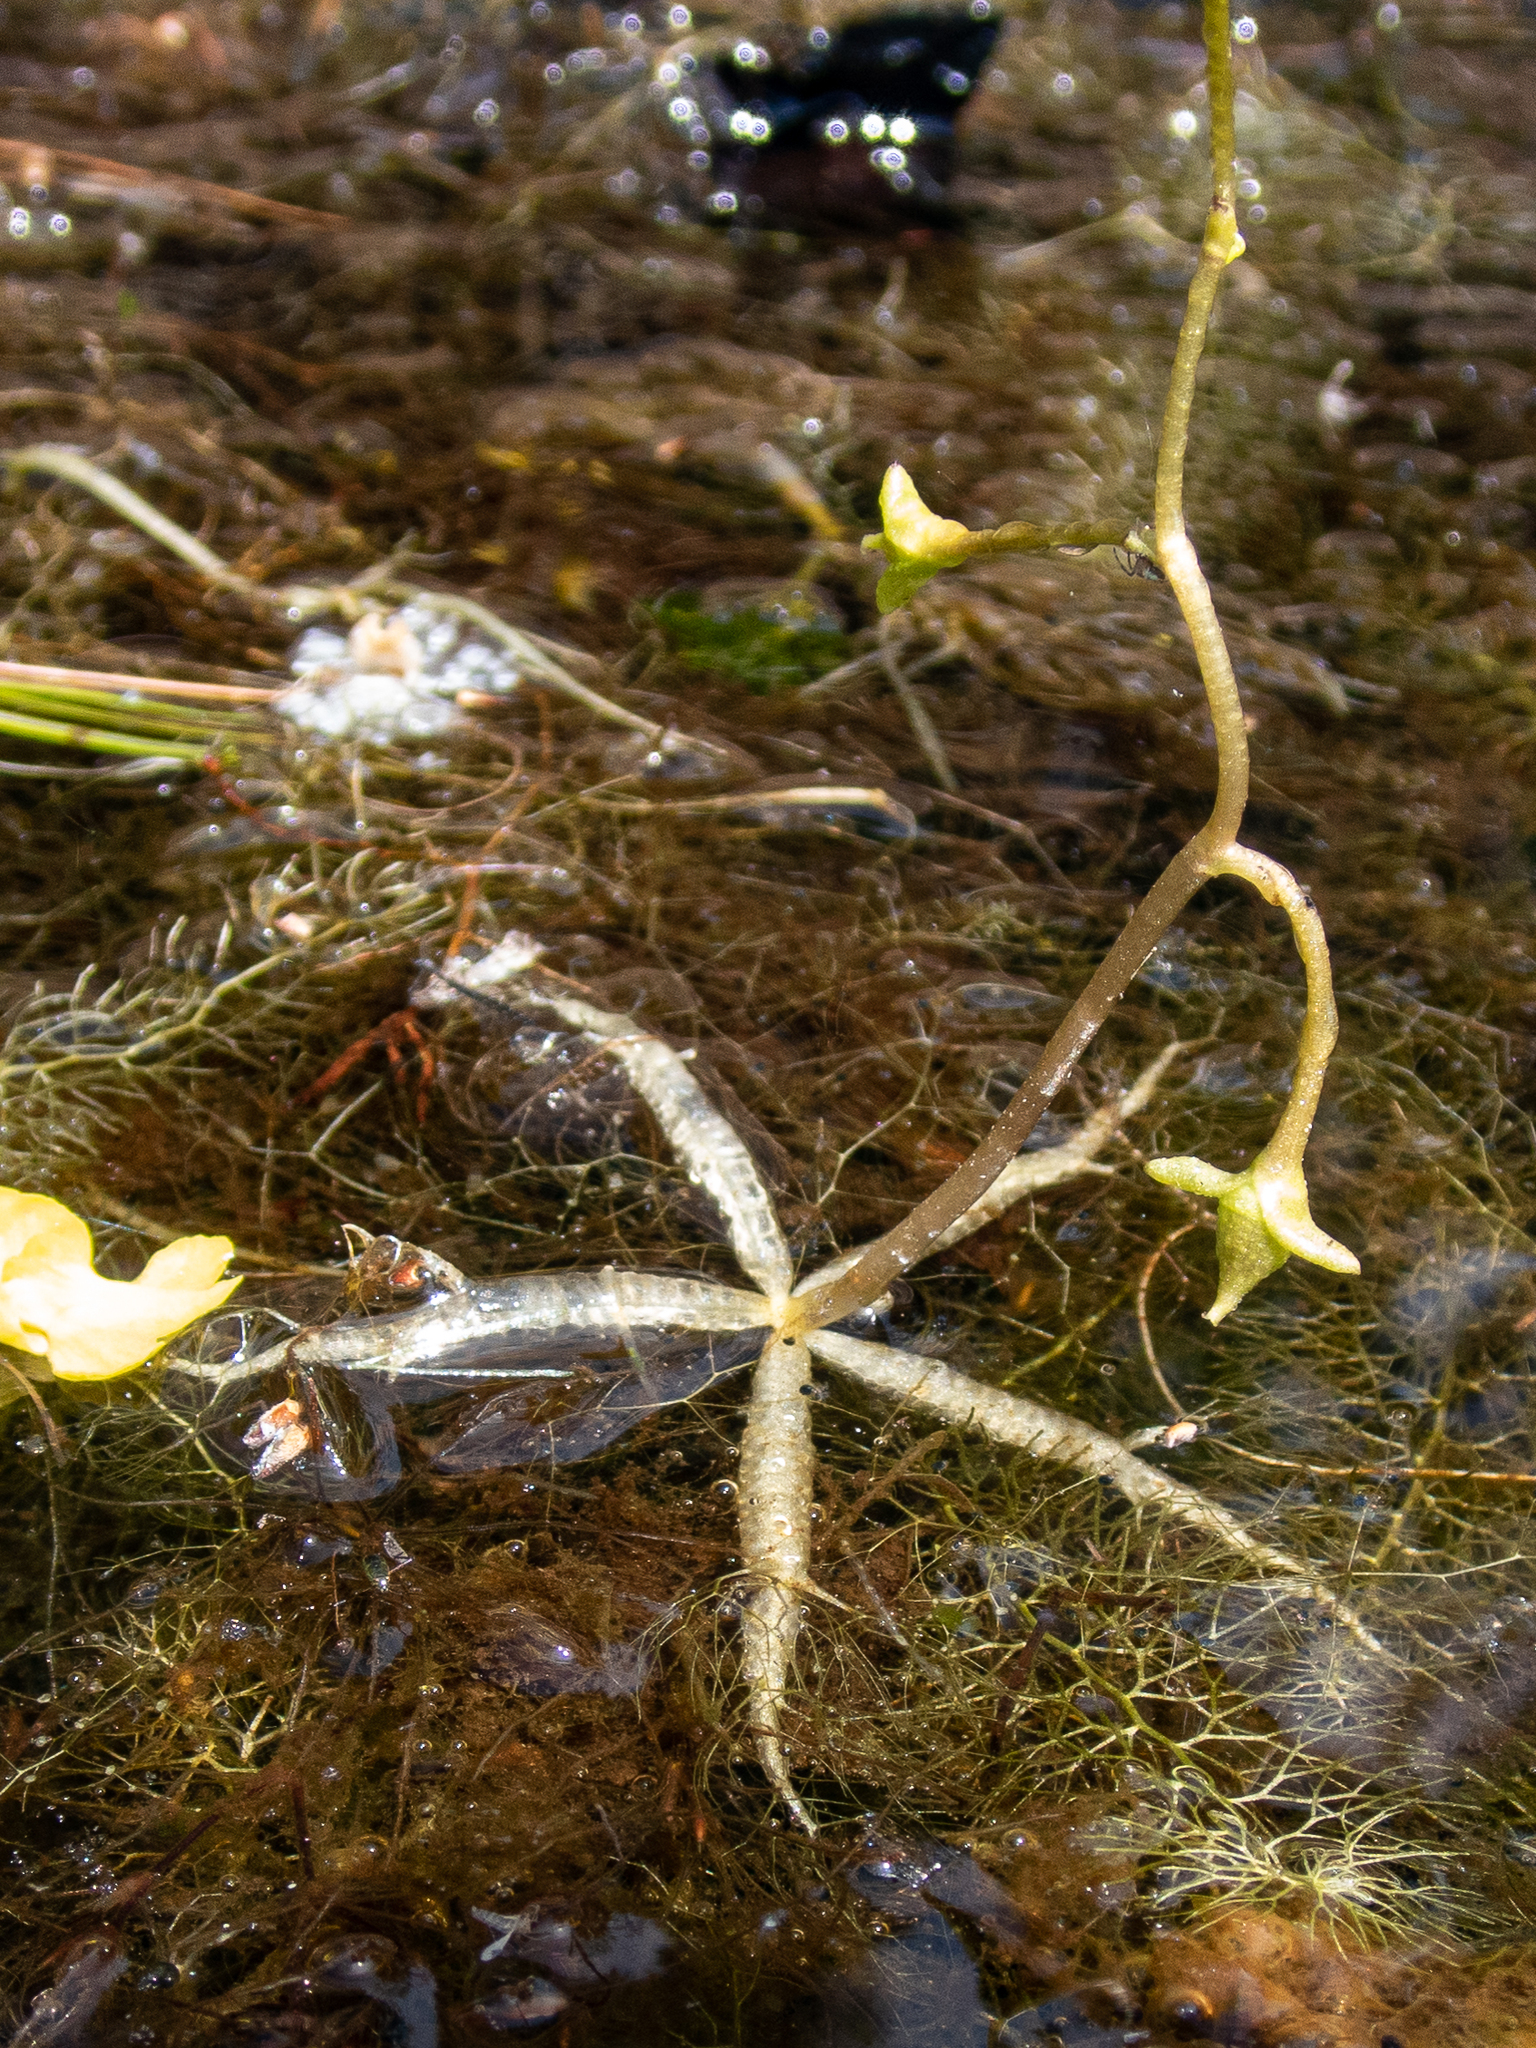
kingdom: Plantae
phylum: Tracheophyta
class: Magnoliopsida
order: Lamiales
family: Lentibulariaceae
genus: Utricularia
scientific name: Utricularia inflata
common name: Floating bladderwort
